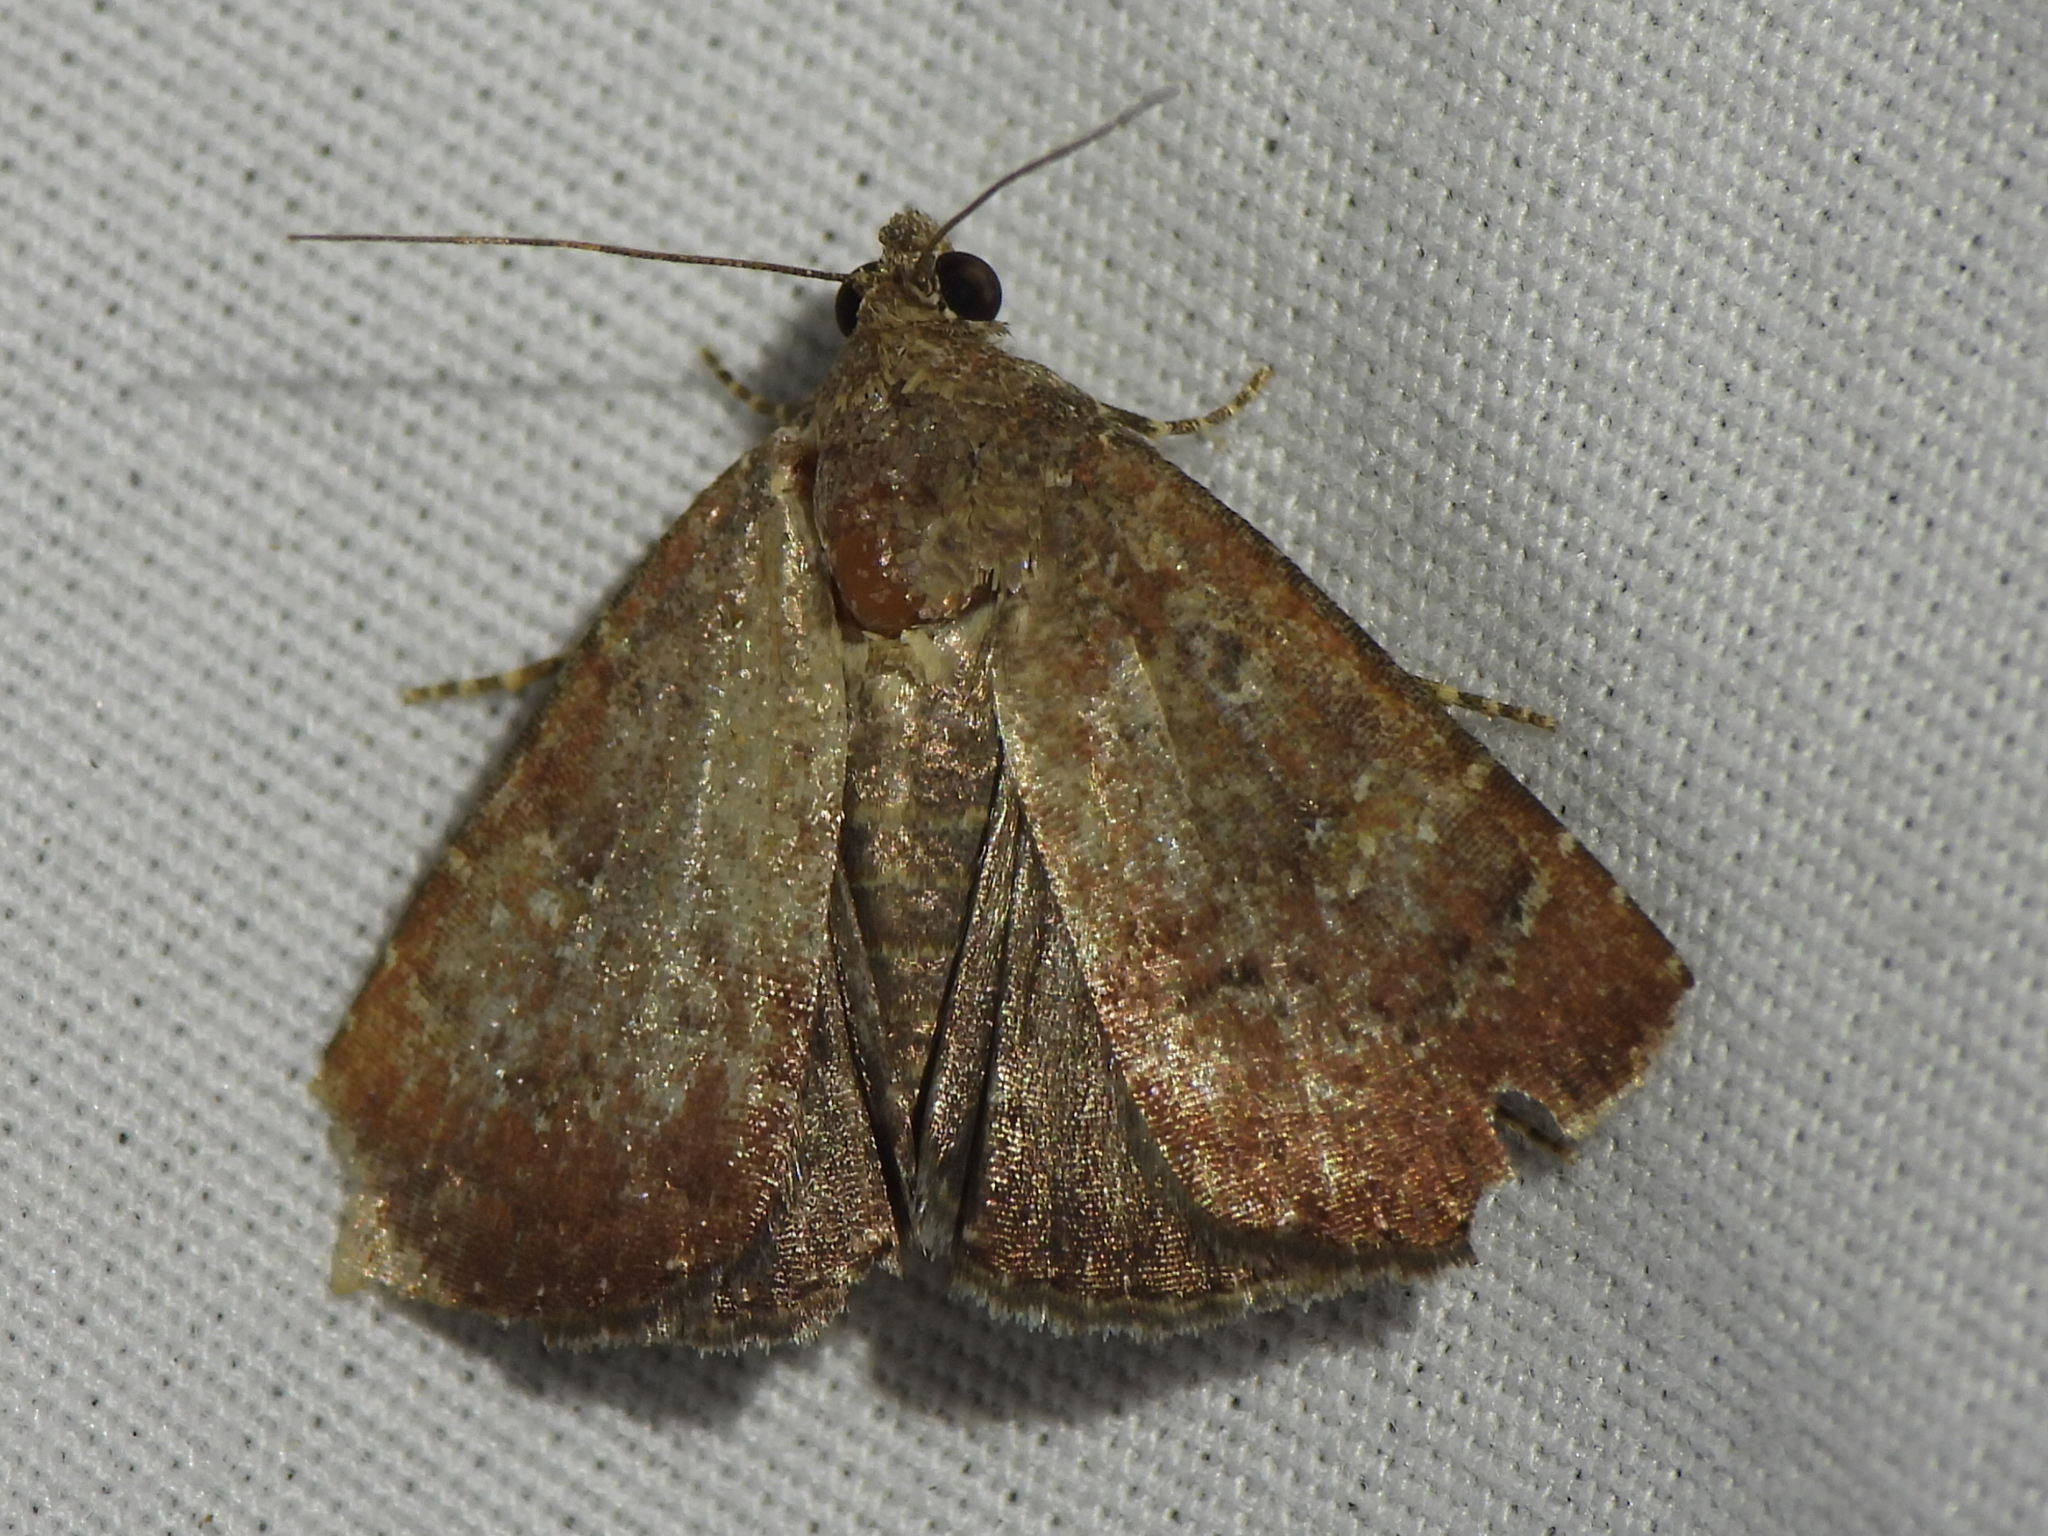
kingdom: Animalia
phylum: Arthropoda
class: Insecta
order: Lepidoptera
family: Noctuidae
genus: Amyna
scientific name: Amyna stricta
